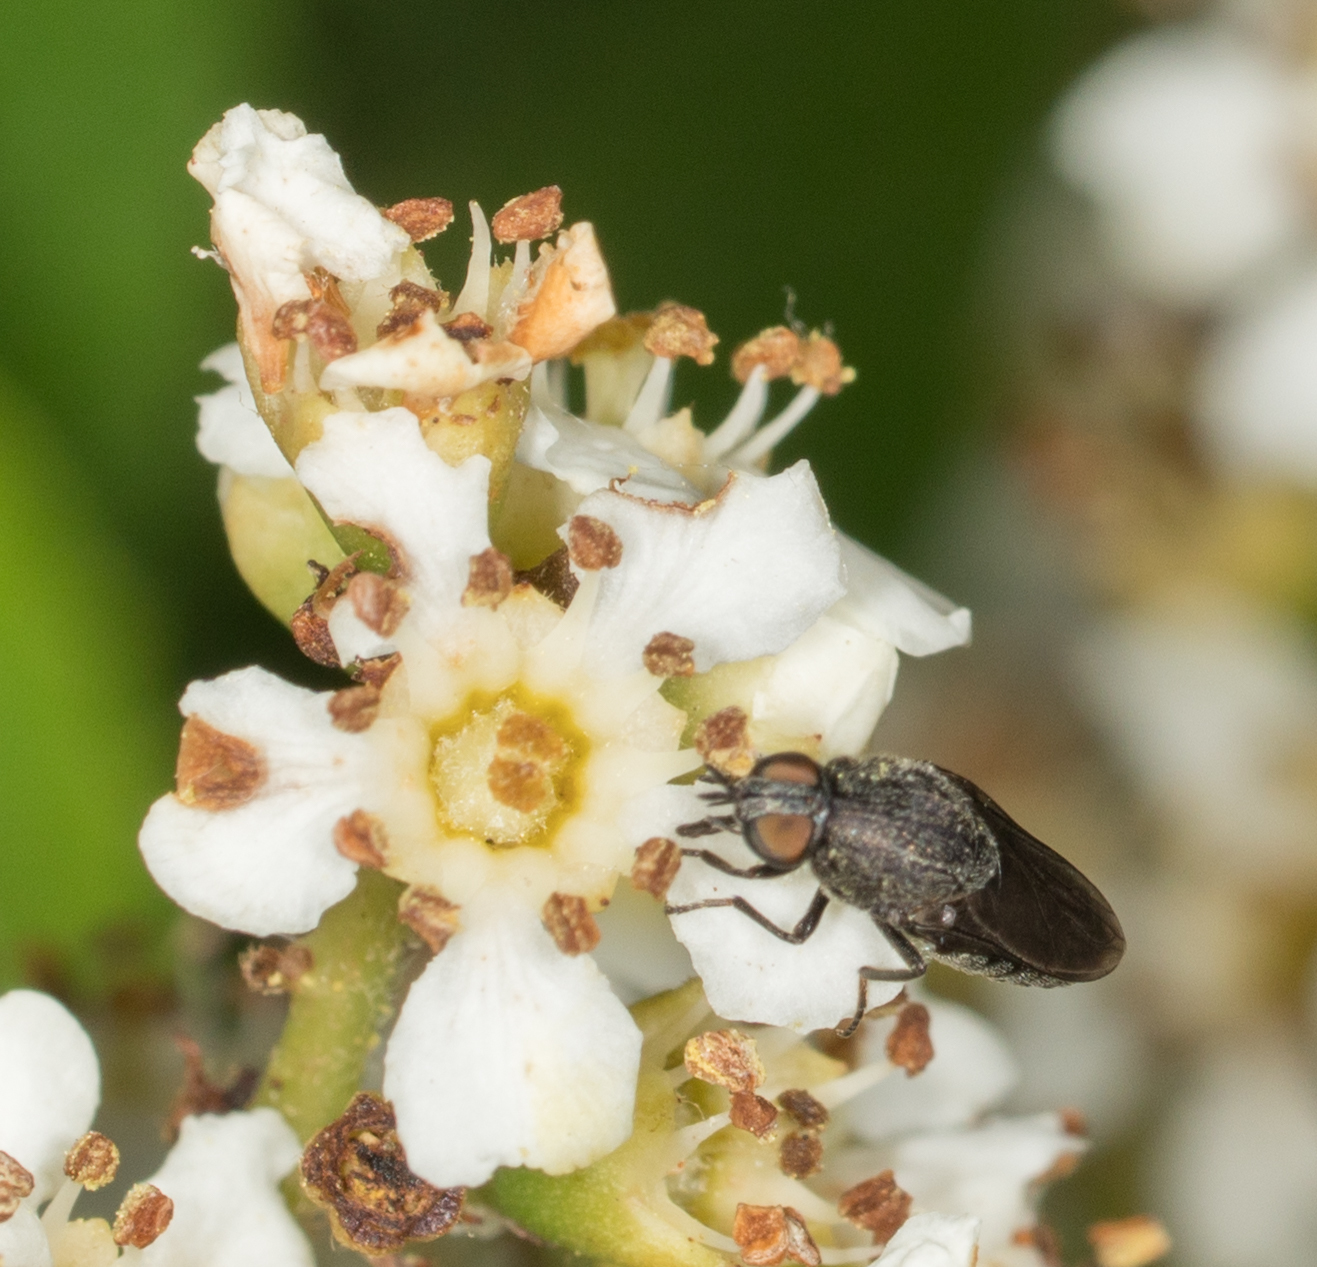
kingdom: Animalia
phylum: Arthropoda
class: Insecta
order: Diptera
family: Scenopinidae
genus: Metatrichia
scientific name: Metatrichia bulbosa
